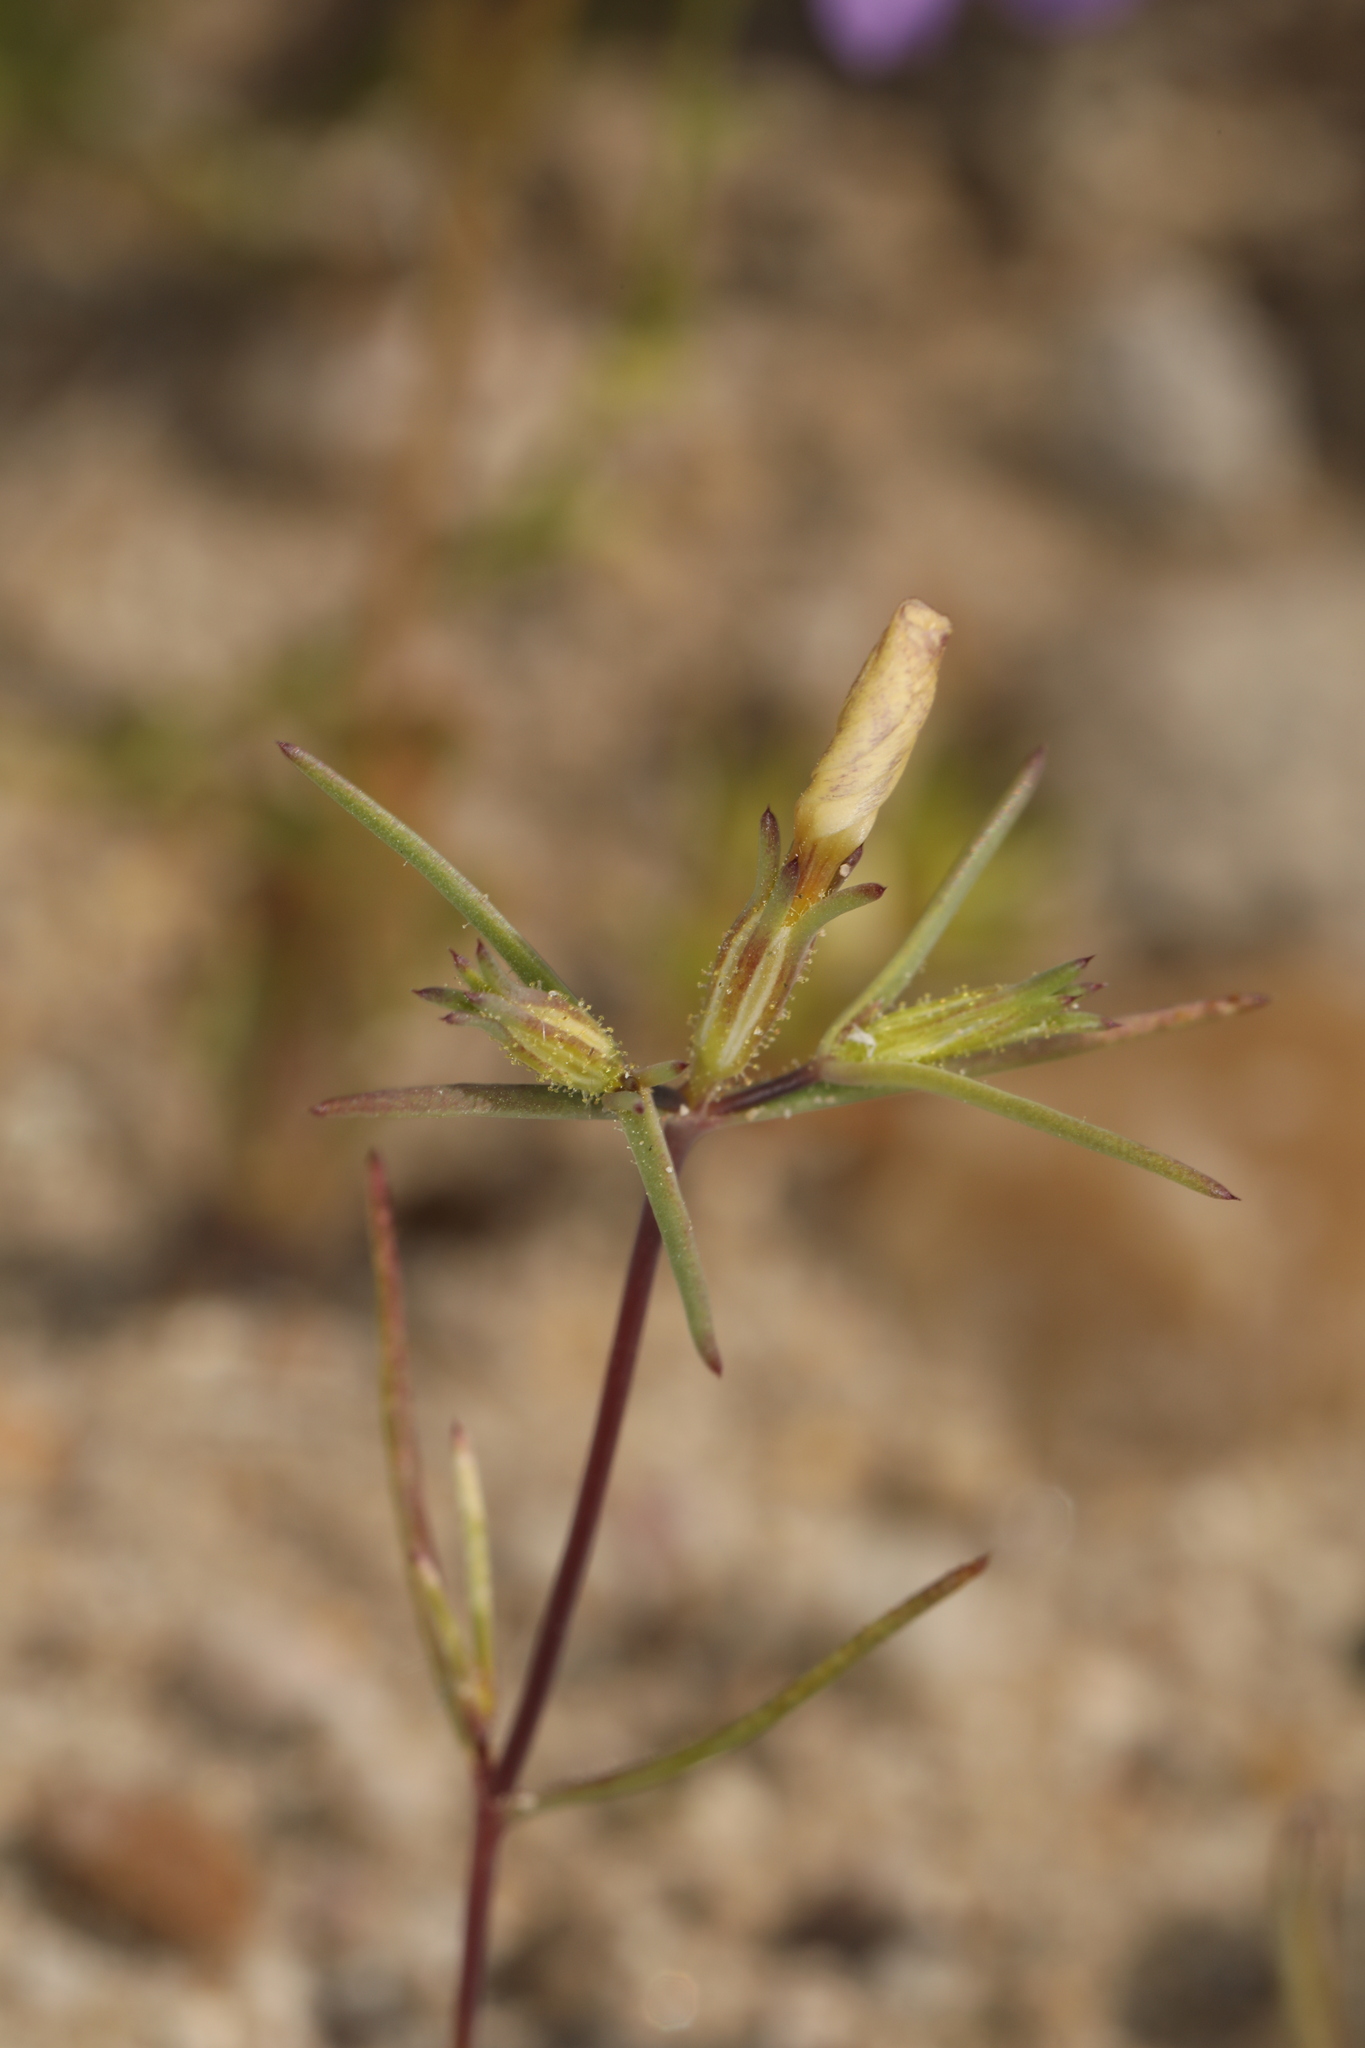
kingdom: Plantae
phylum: Tracheophyta
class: Magnoliopsida
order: Ericales
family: Polemoniaceae
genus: Linanthus
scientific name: Linanthus jonesii
